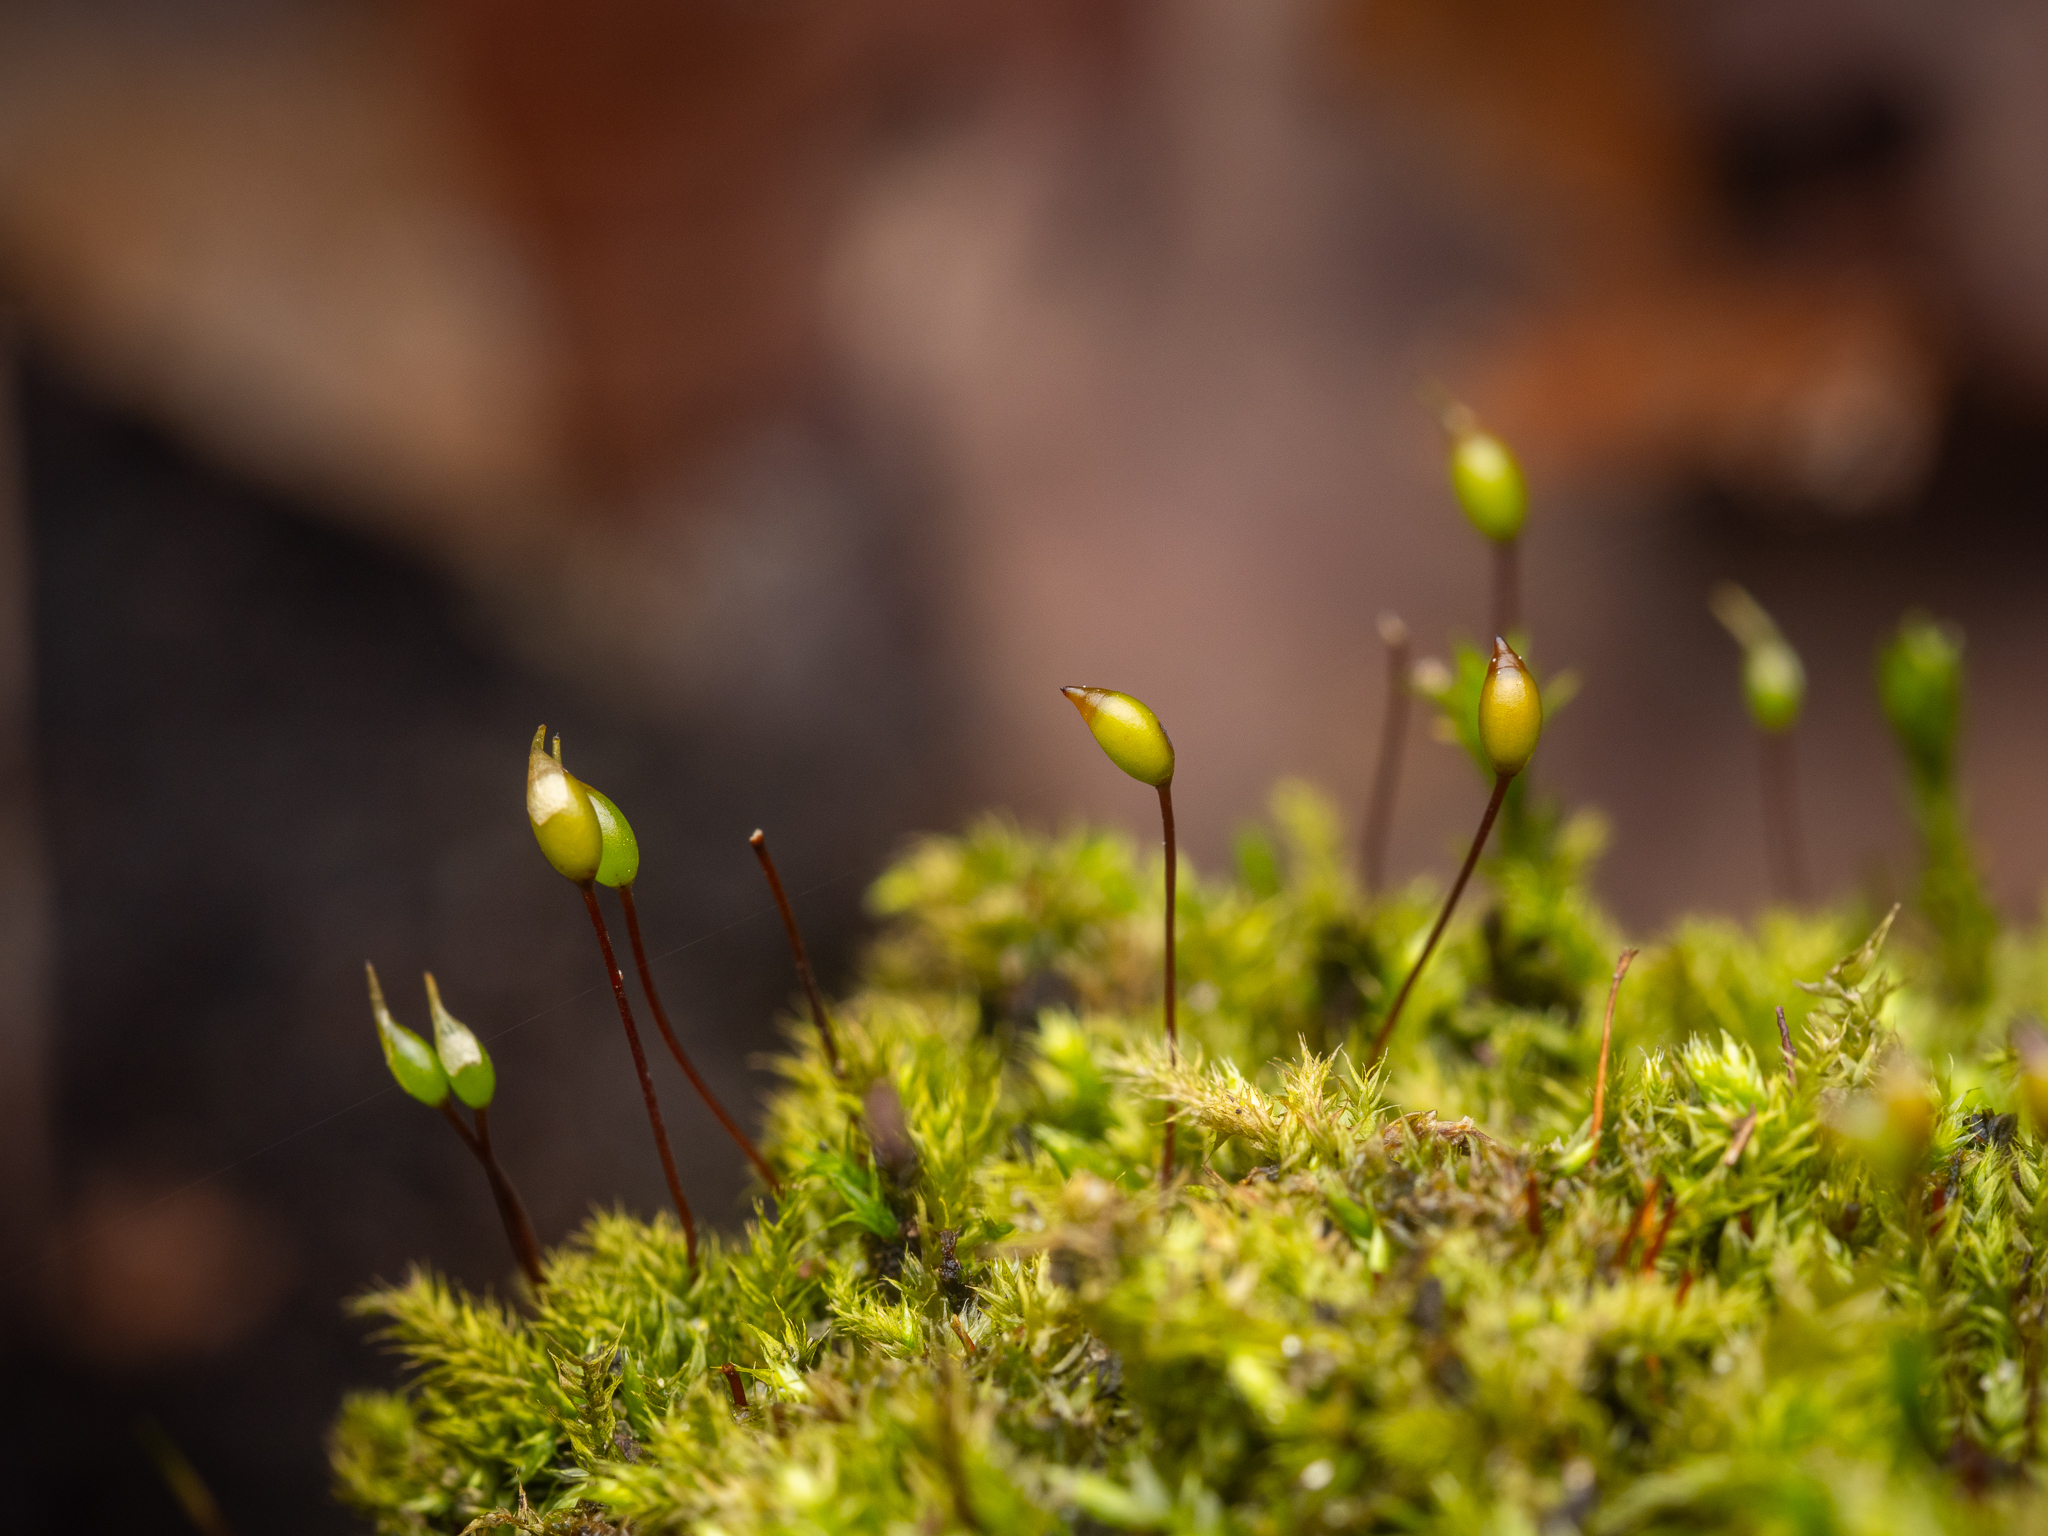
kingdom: Plantae
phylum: Bryophyta
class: Bryopsida
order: Hypnales
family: Brachytheciaceae
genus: Brachytheciastrum
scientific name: Brachytheciastrum velutinum
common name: Velvet feather-moss
